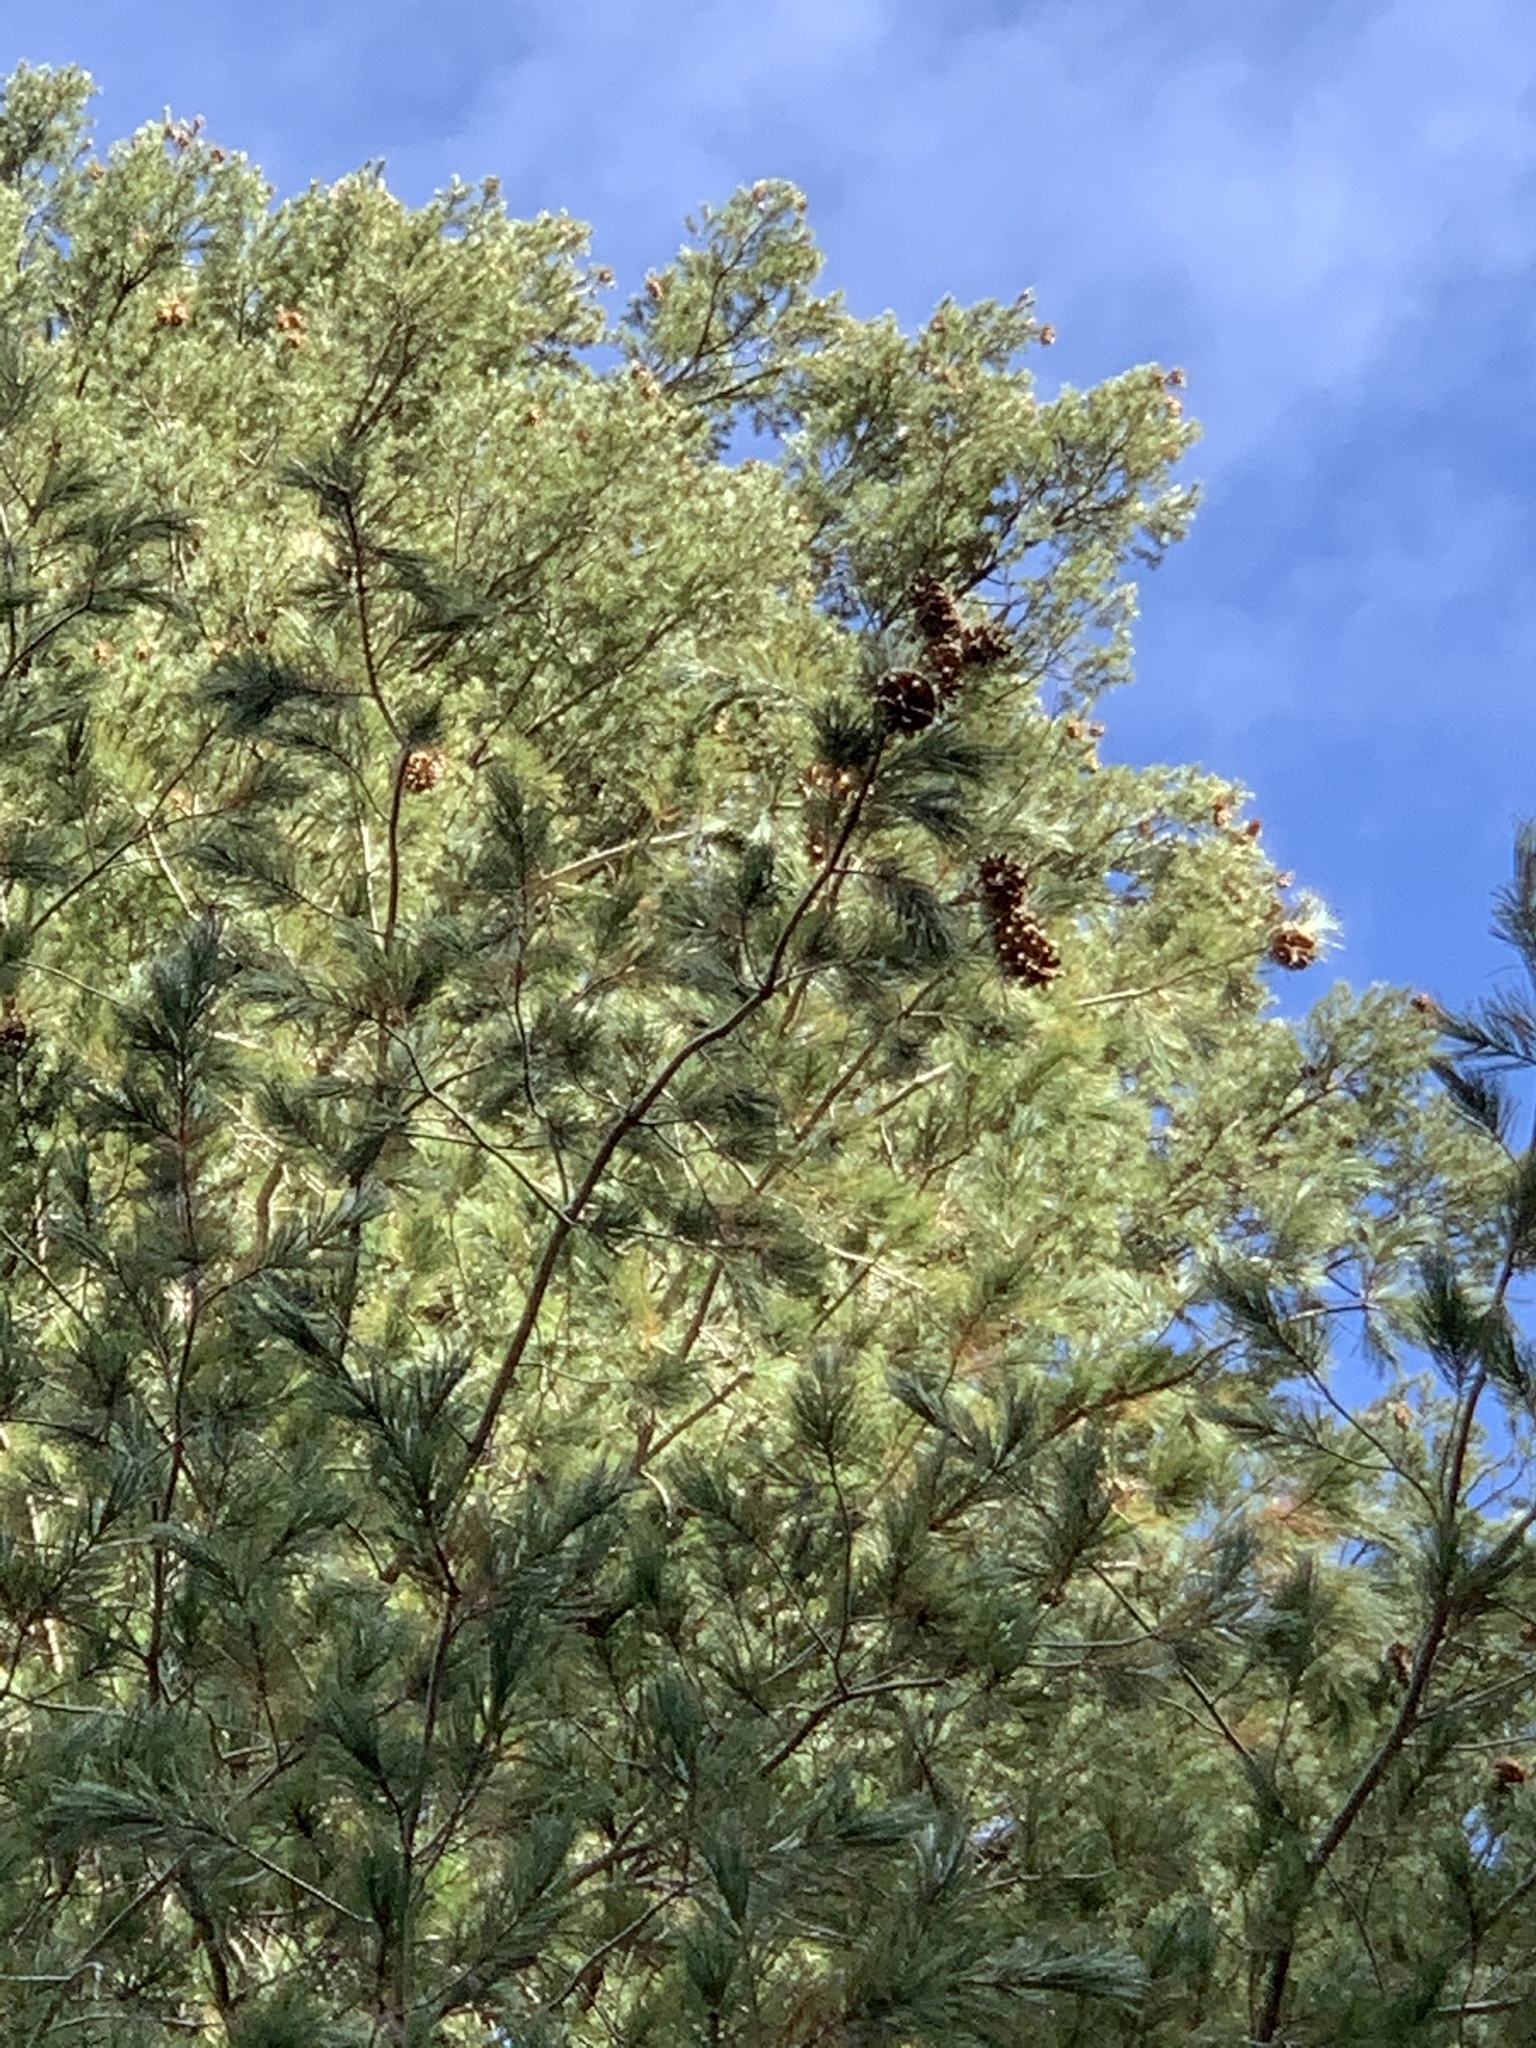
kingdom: Plantae
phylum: Tracheophyta
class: Pinopsida
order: Pinales
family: Pinaceae
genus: Pinus
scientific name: Pinus strobiformis
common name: Southwestern white pine
